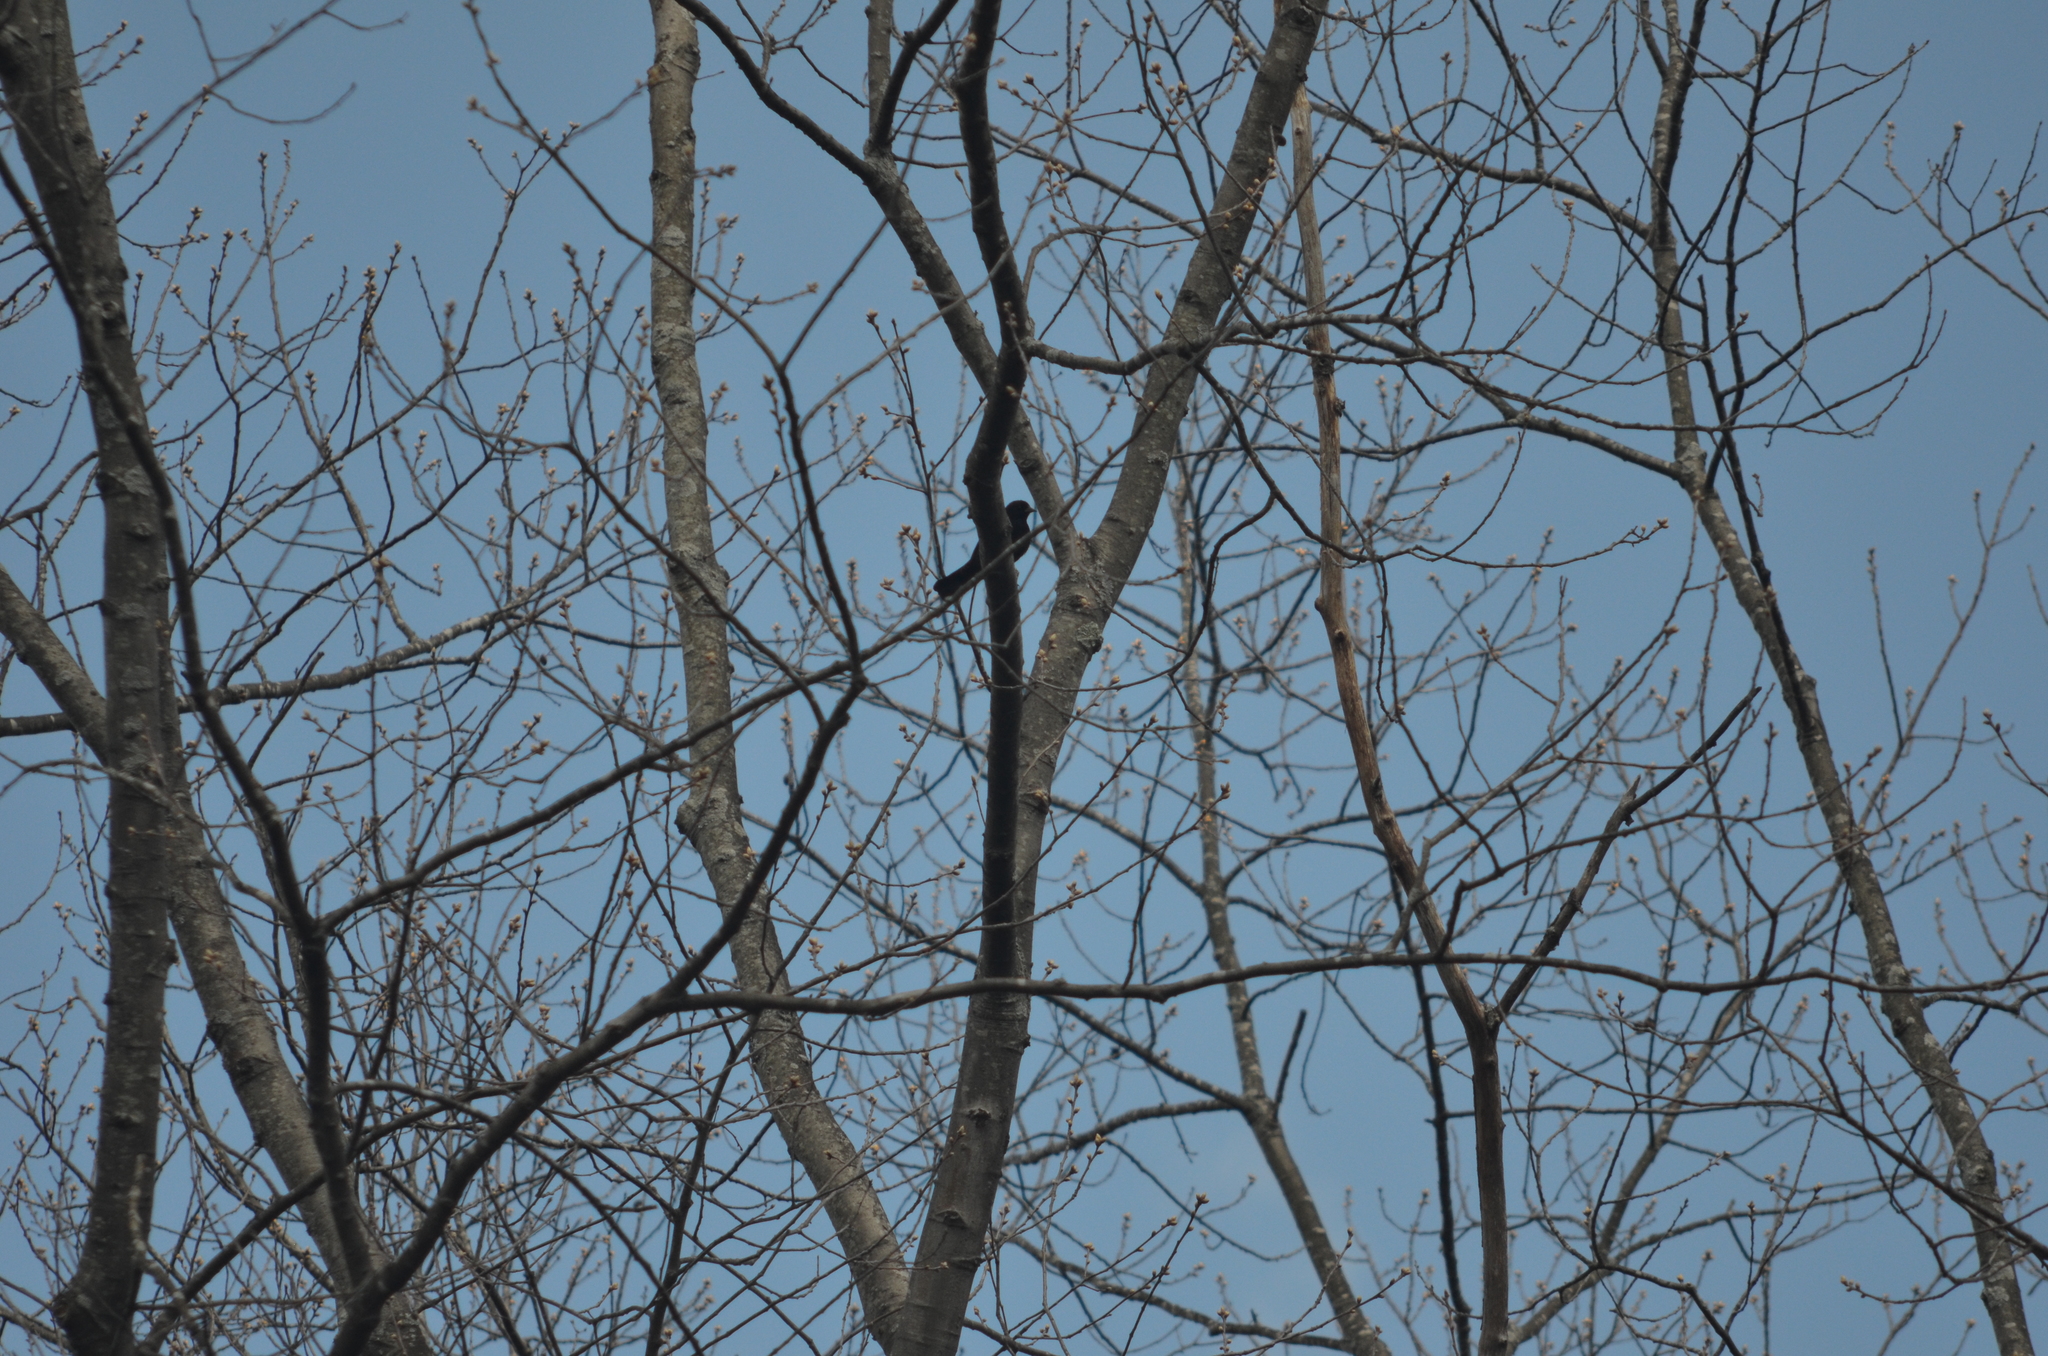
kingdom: Animalia
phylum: Chordata
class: Aves
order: Passeriformes
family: Icteridae
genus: Agelaius
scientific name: Agelaius phoeniceus
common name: Red-winged blackbird
